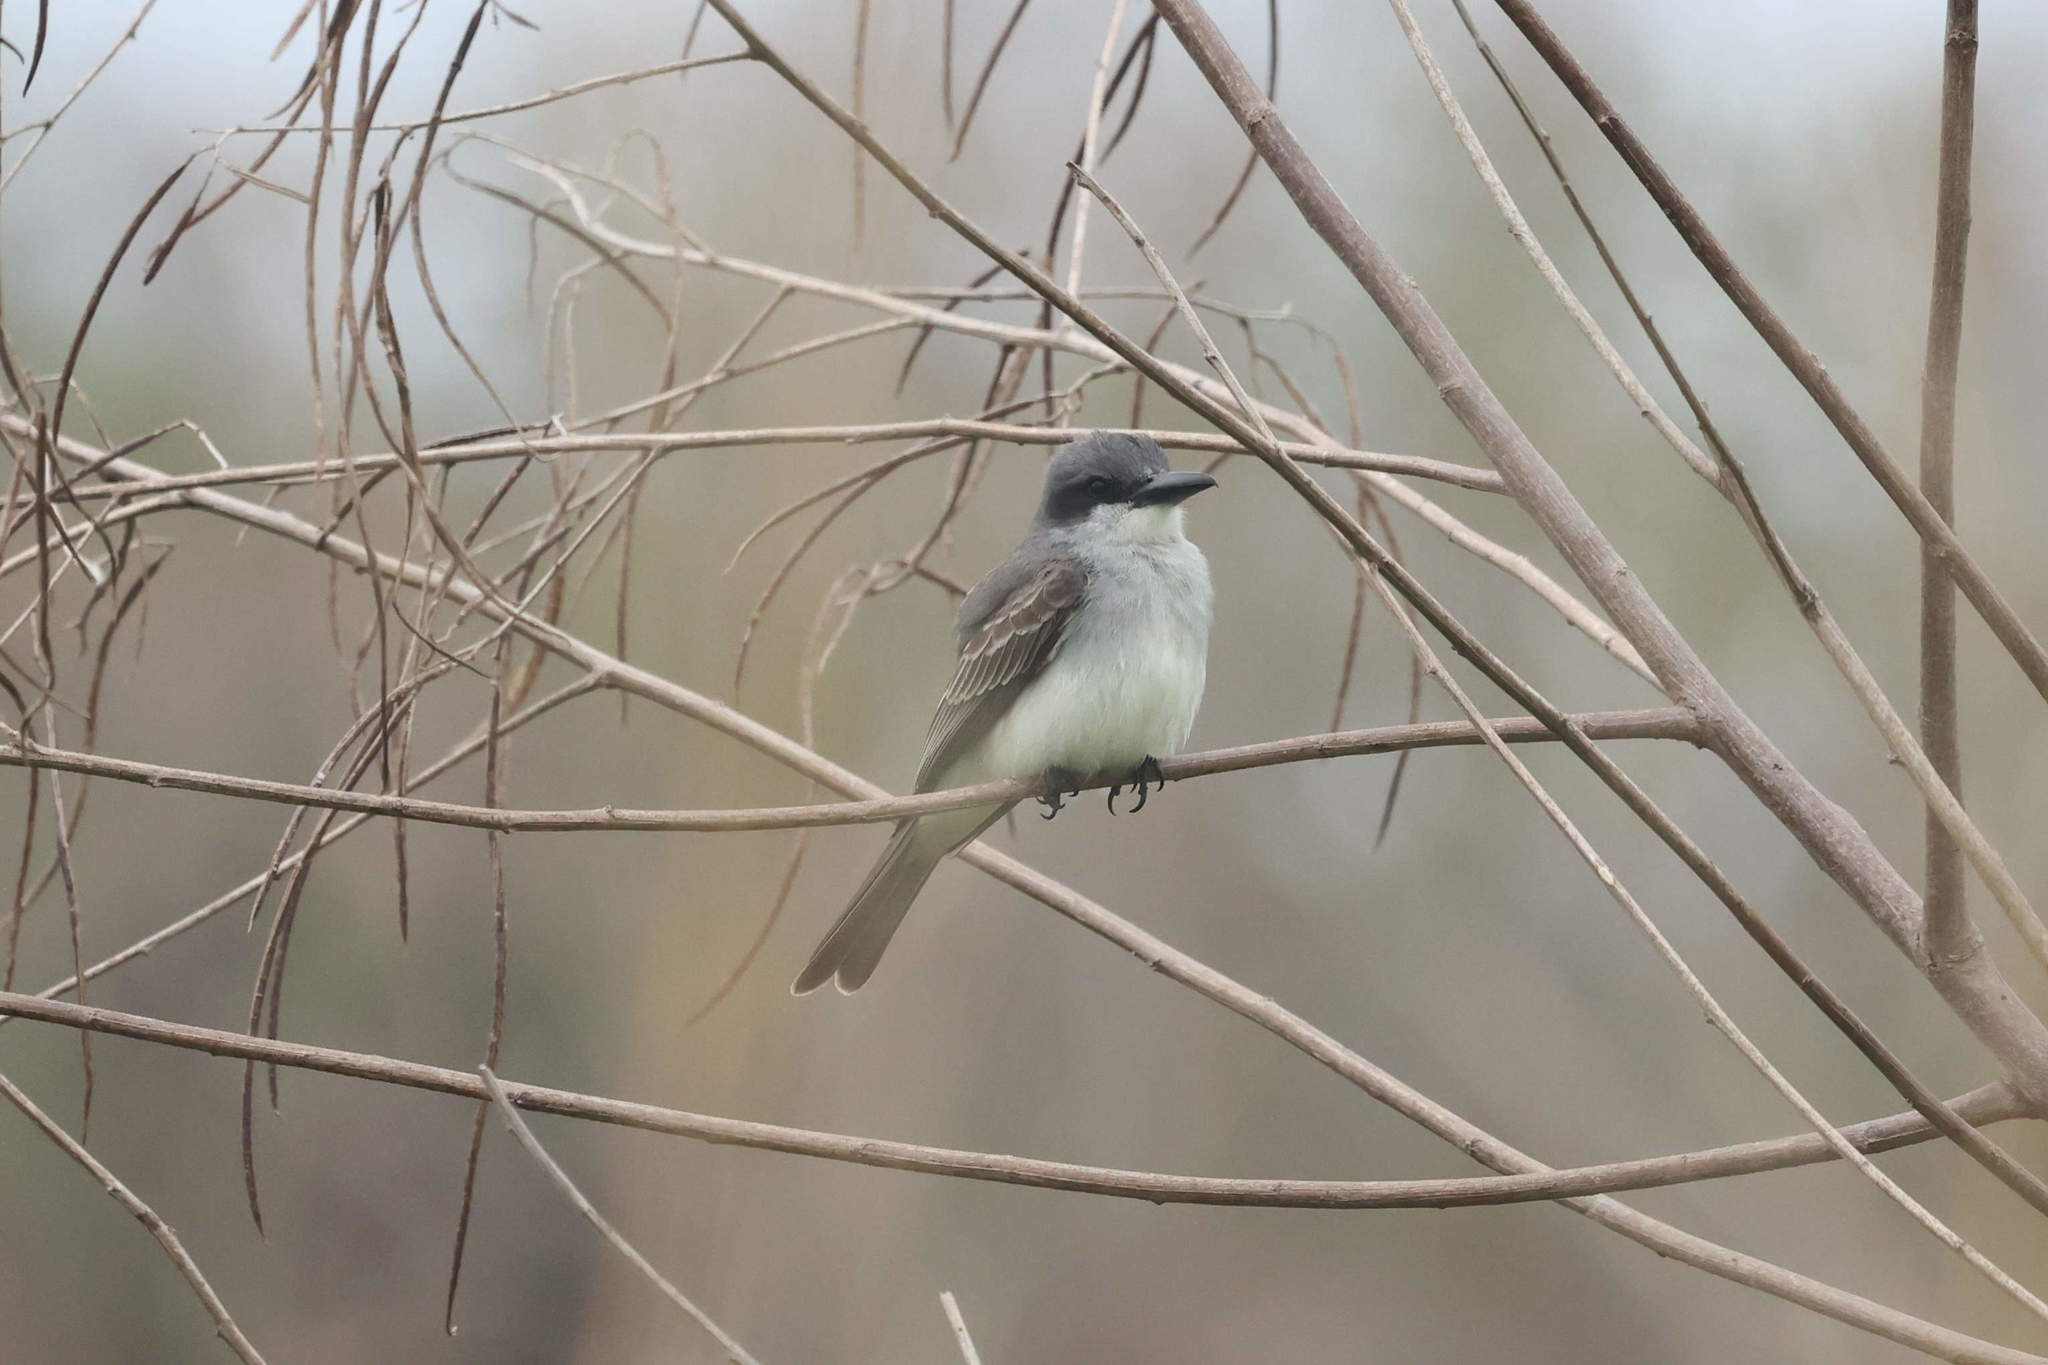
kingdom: Animalia
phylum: Chordata
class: Aves
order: Passeriformes
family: Tyrannidae
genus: Tyrannus
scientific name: Tyrannus dominicensis
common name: Gray kingbird
